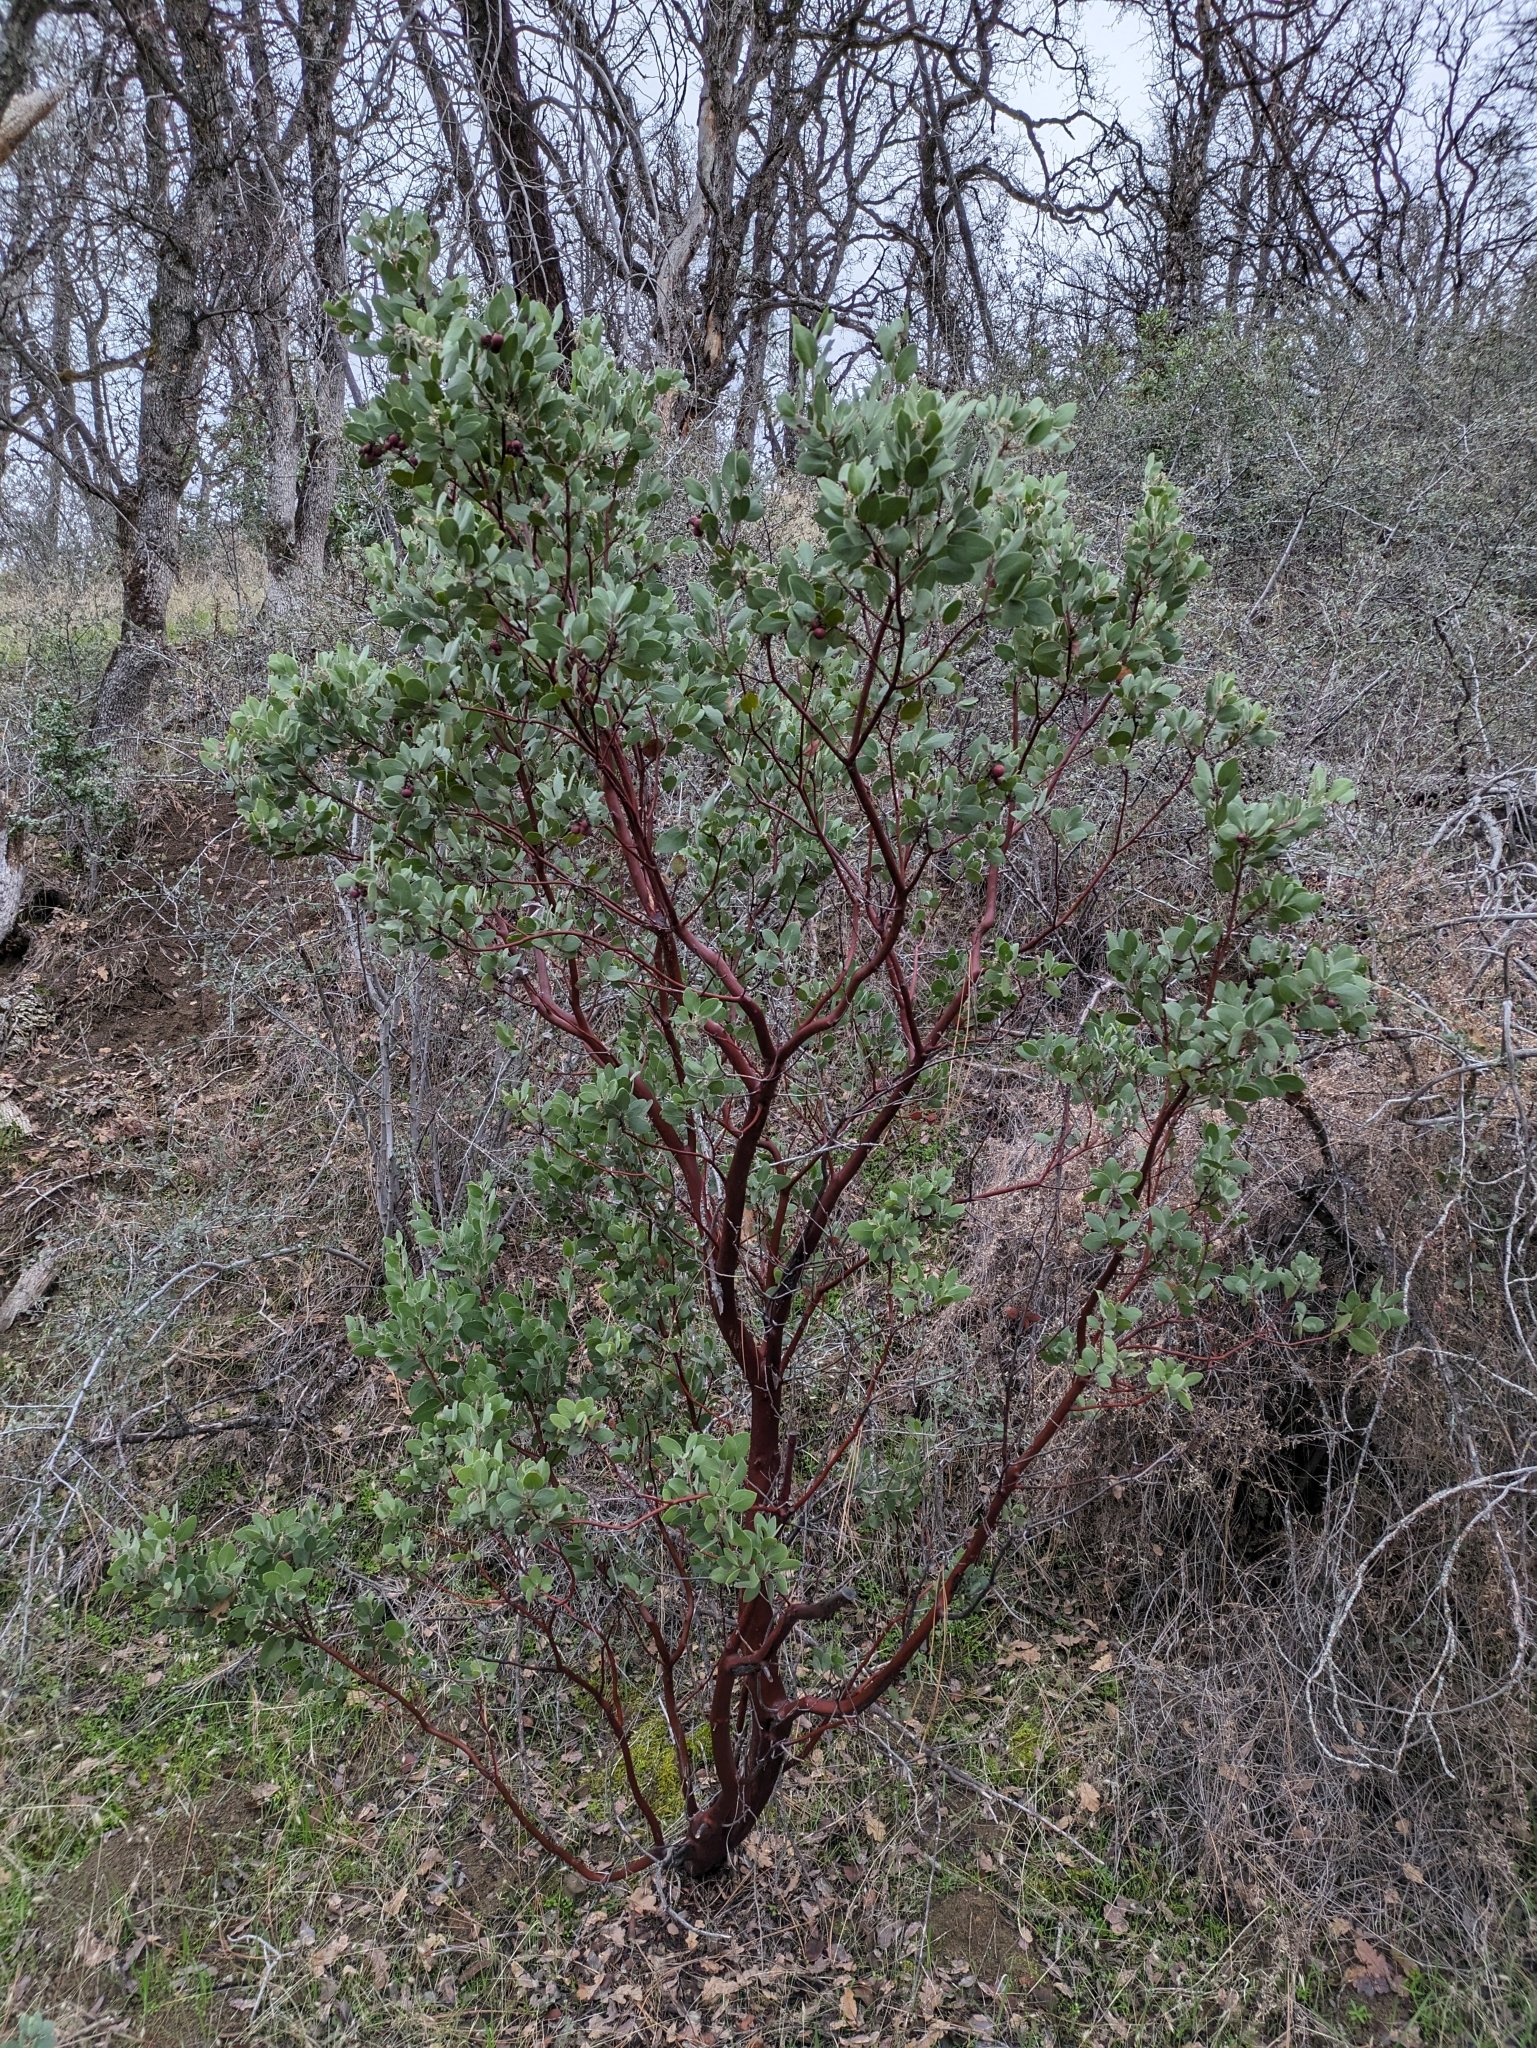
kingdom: Plantae
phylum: Tracheophyta
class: Magnoliopsida
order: Ericales
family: Ericaceae
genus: Arctostaphylos
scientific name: Arctostaphylos manzanita
